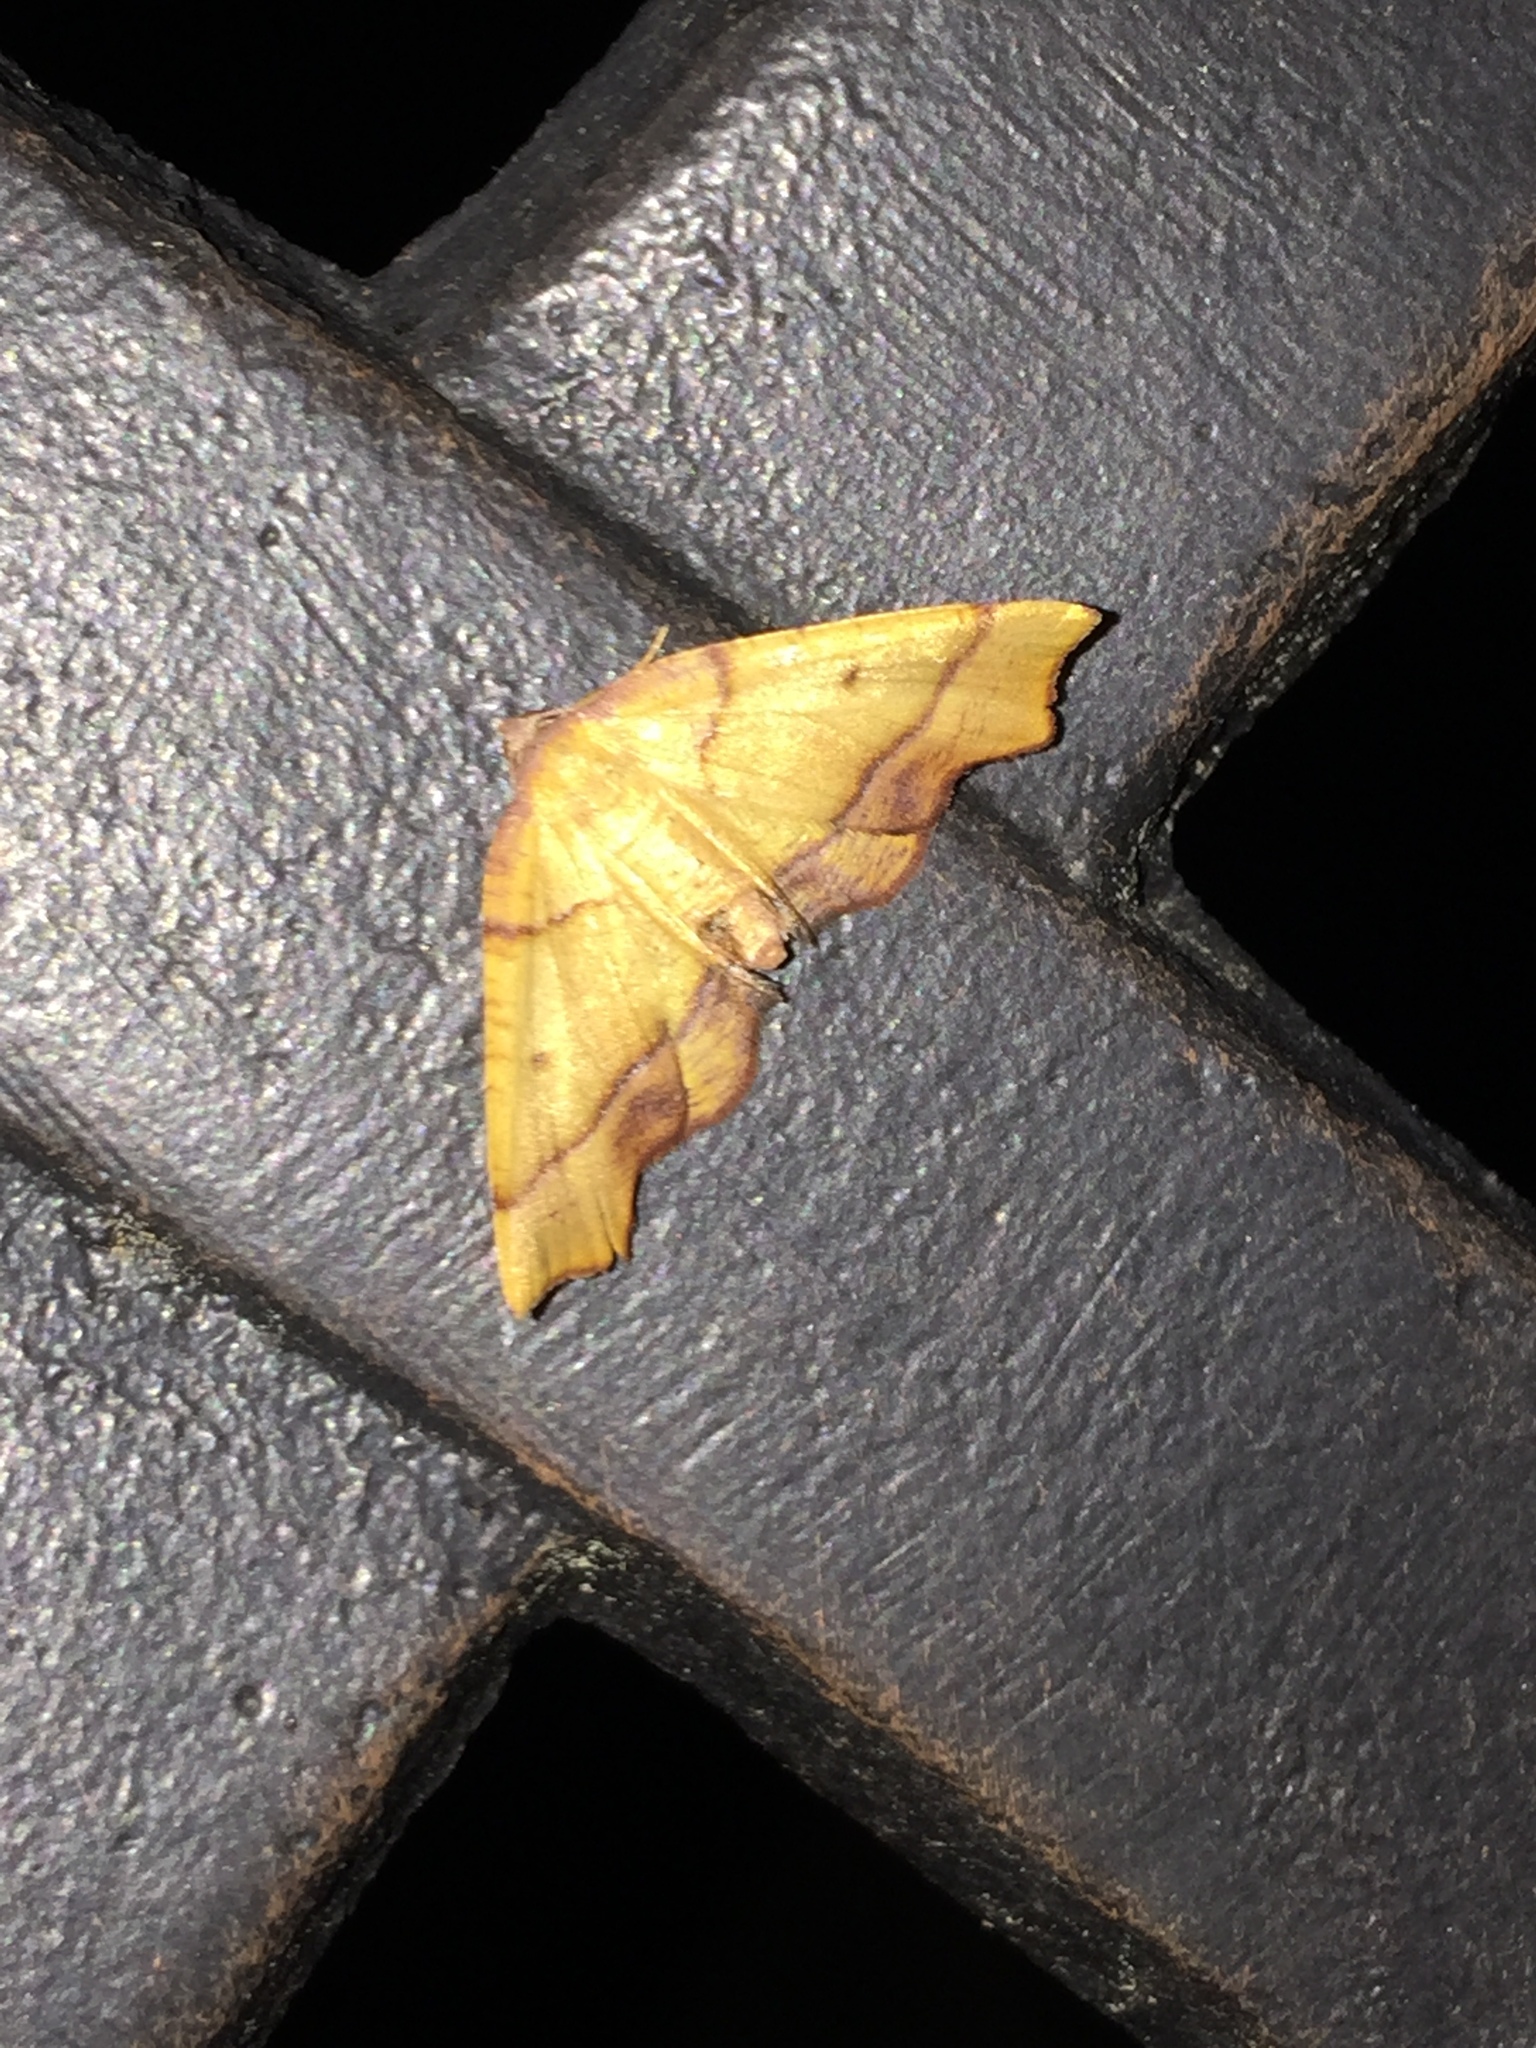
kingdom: Animalia
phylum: Arthropoda
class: Insecta
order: Lepidoptera
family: Geometridae
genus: Plagodis
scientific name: Plagodis phlogosaria
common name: Straight-lined plagodis
